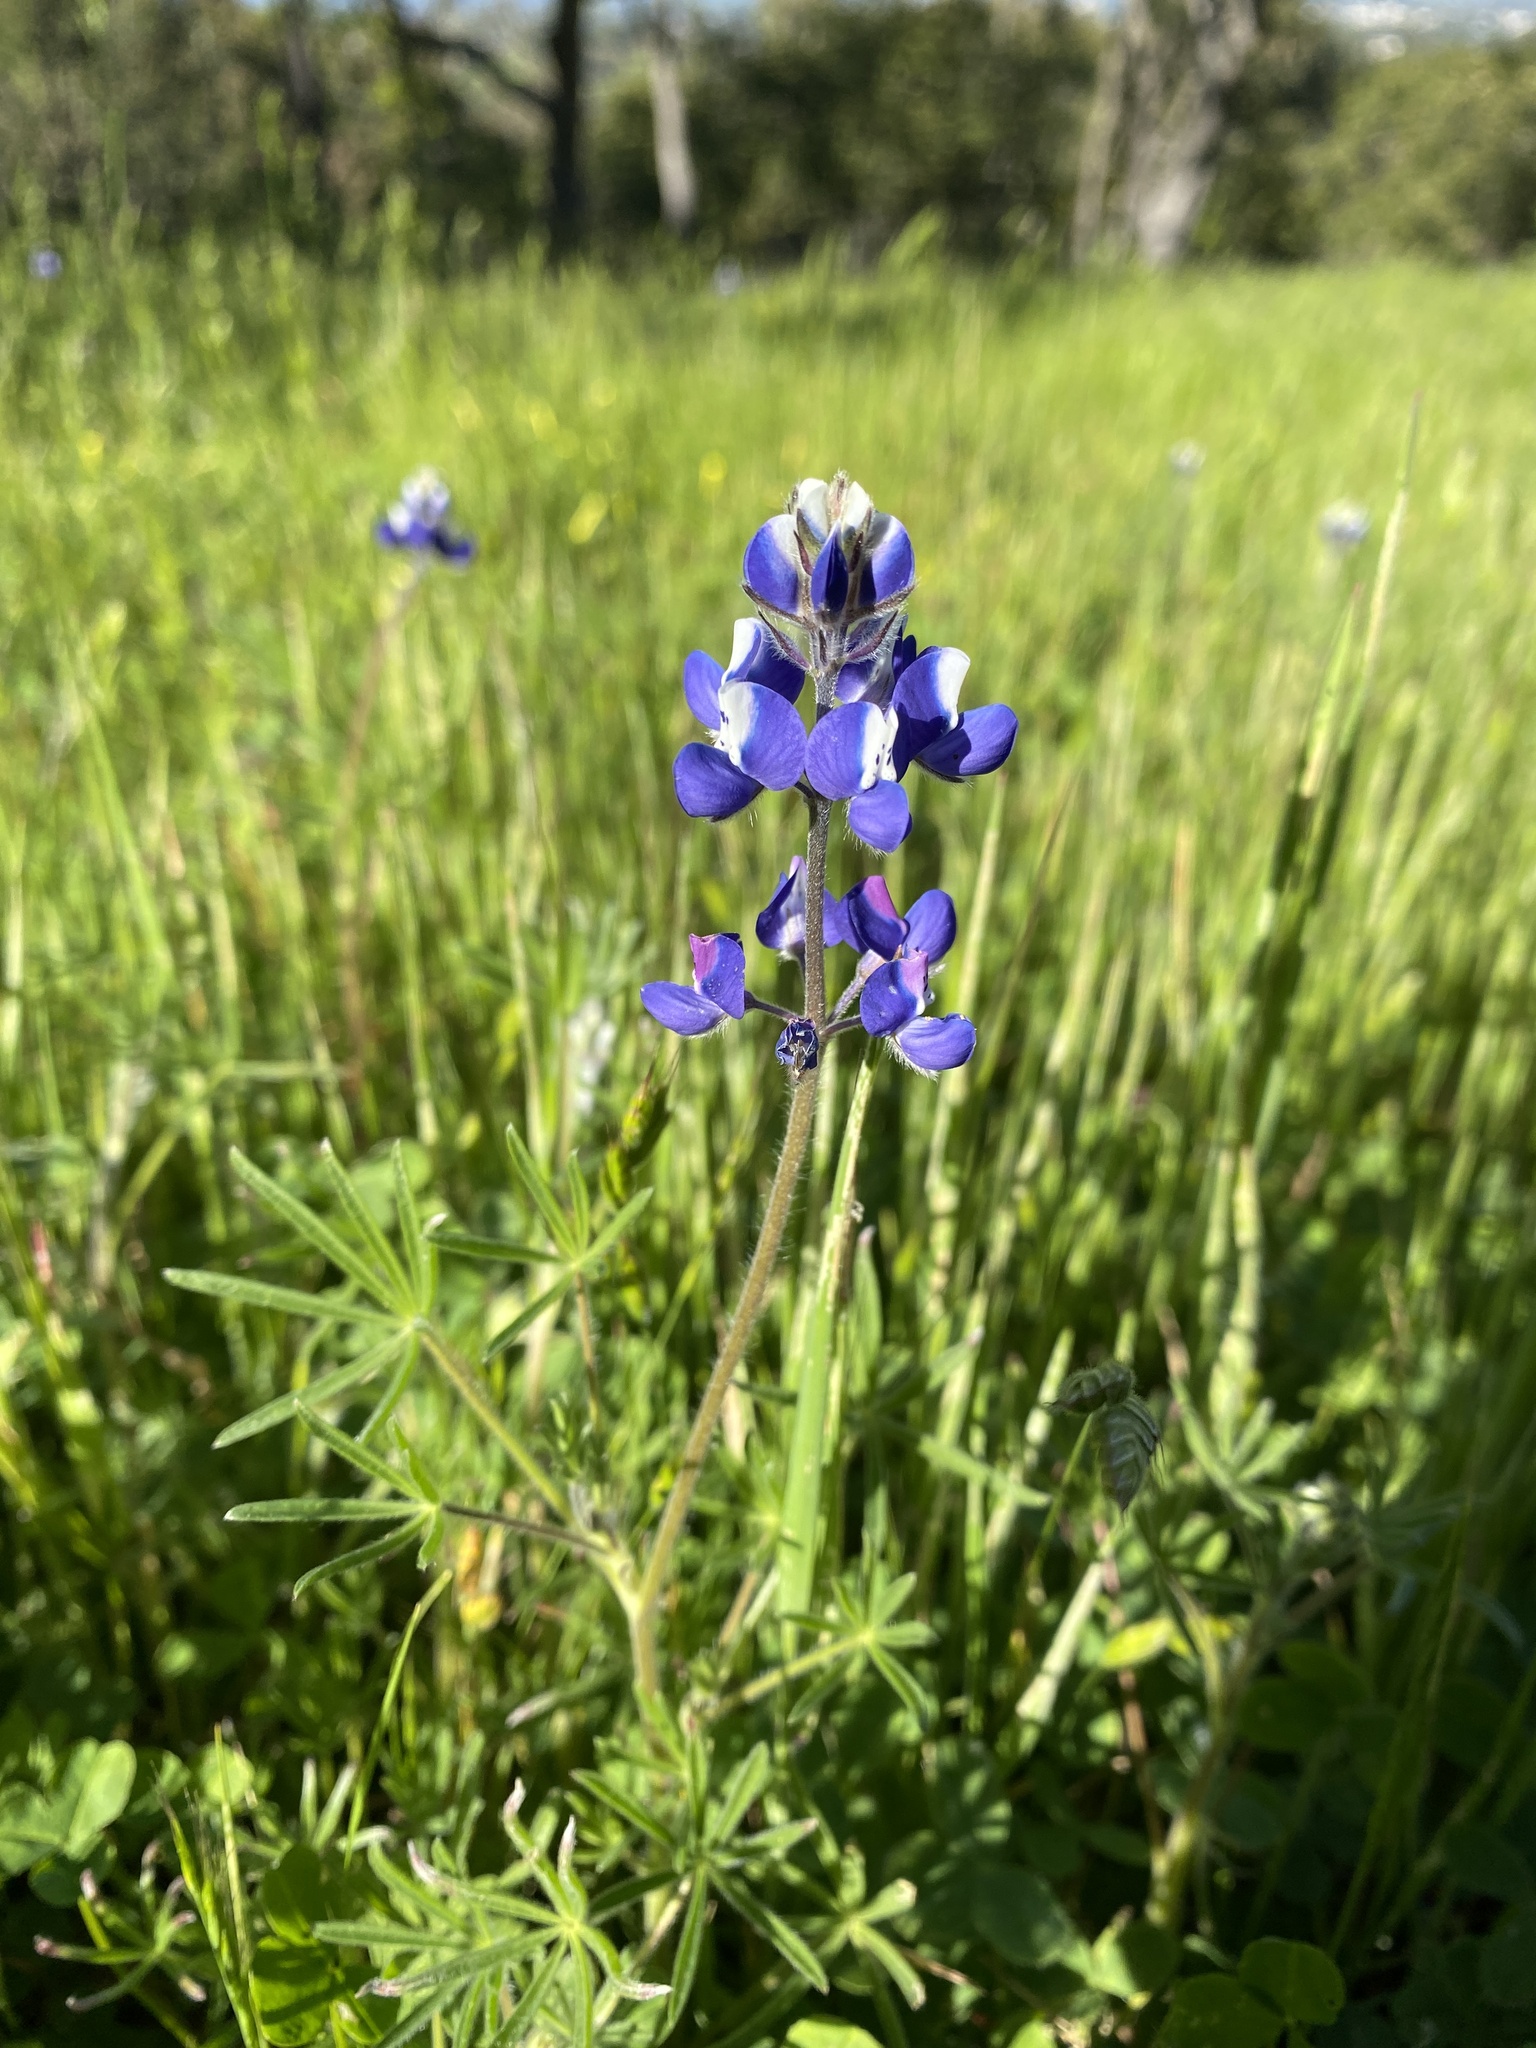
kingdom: Plantae
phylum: Tracheophyta
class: Magnoliopsida
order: Fabales
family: Fabaceae
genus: Lupinus
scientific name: Lupinus bicolor
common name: Miniature lupine
